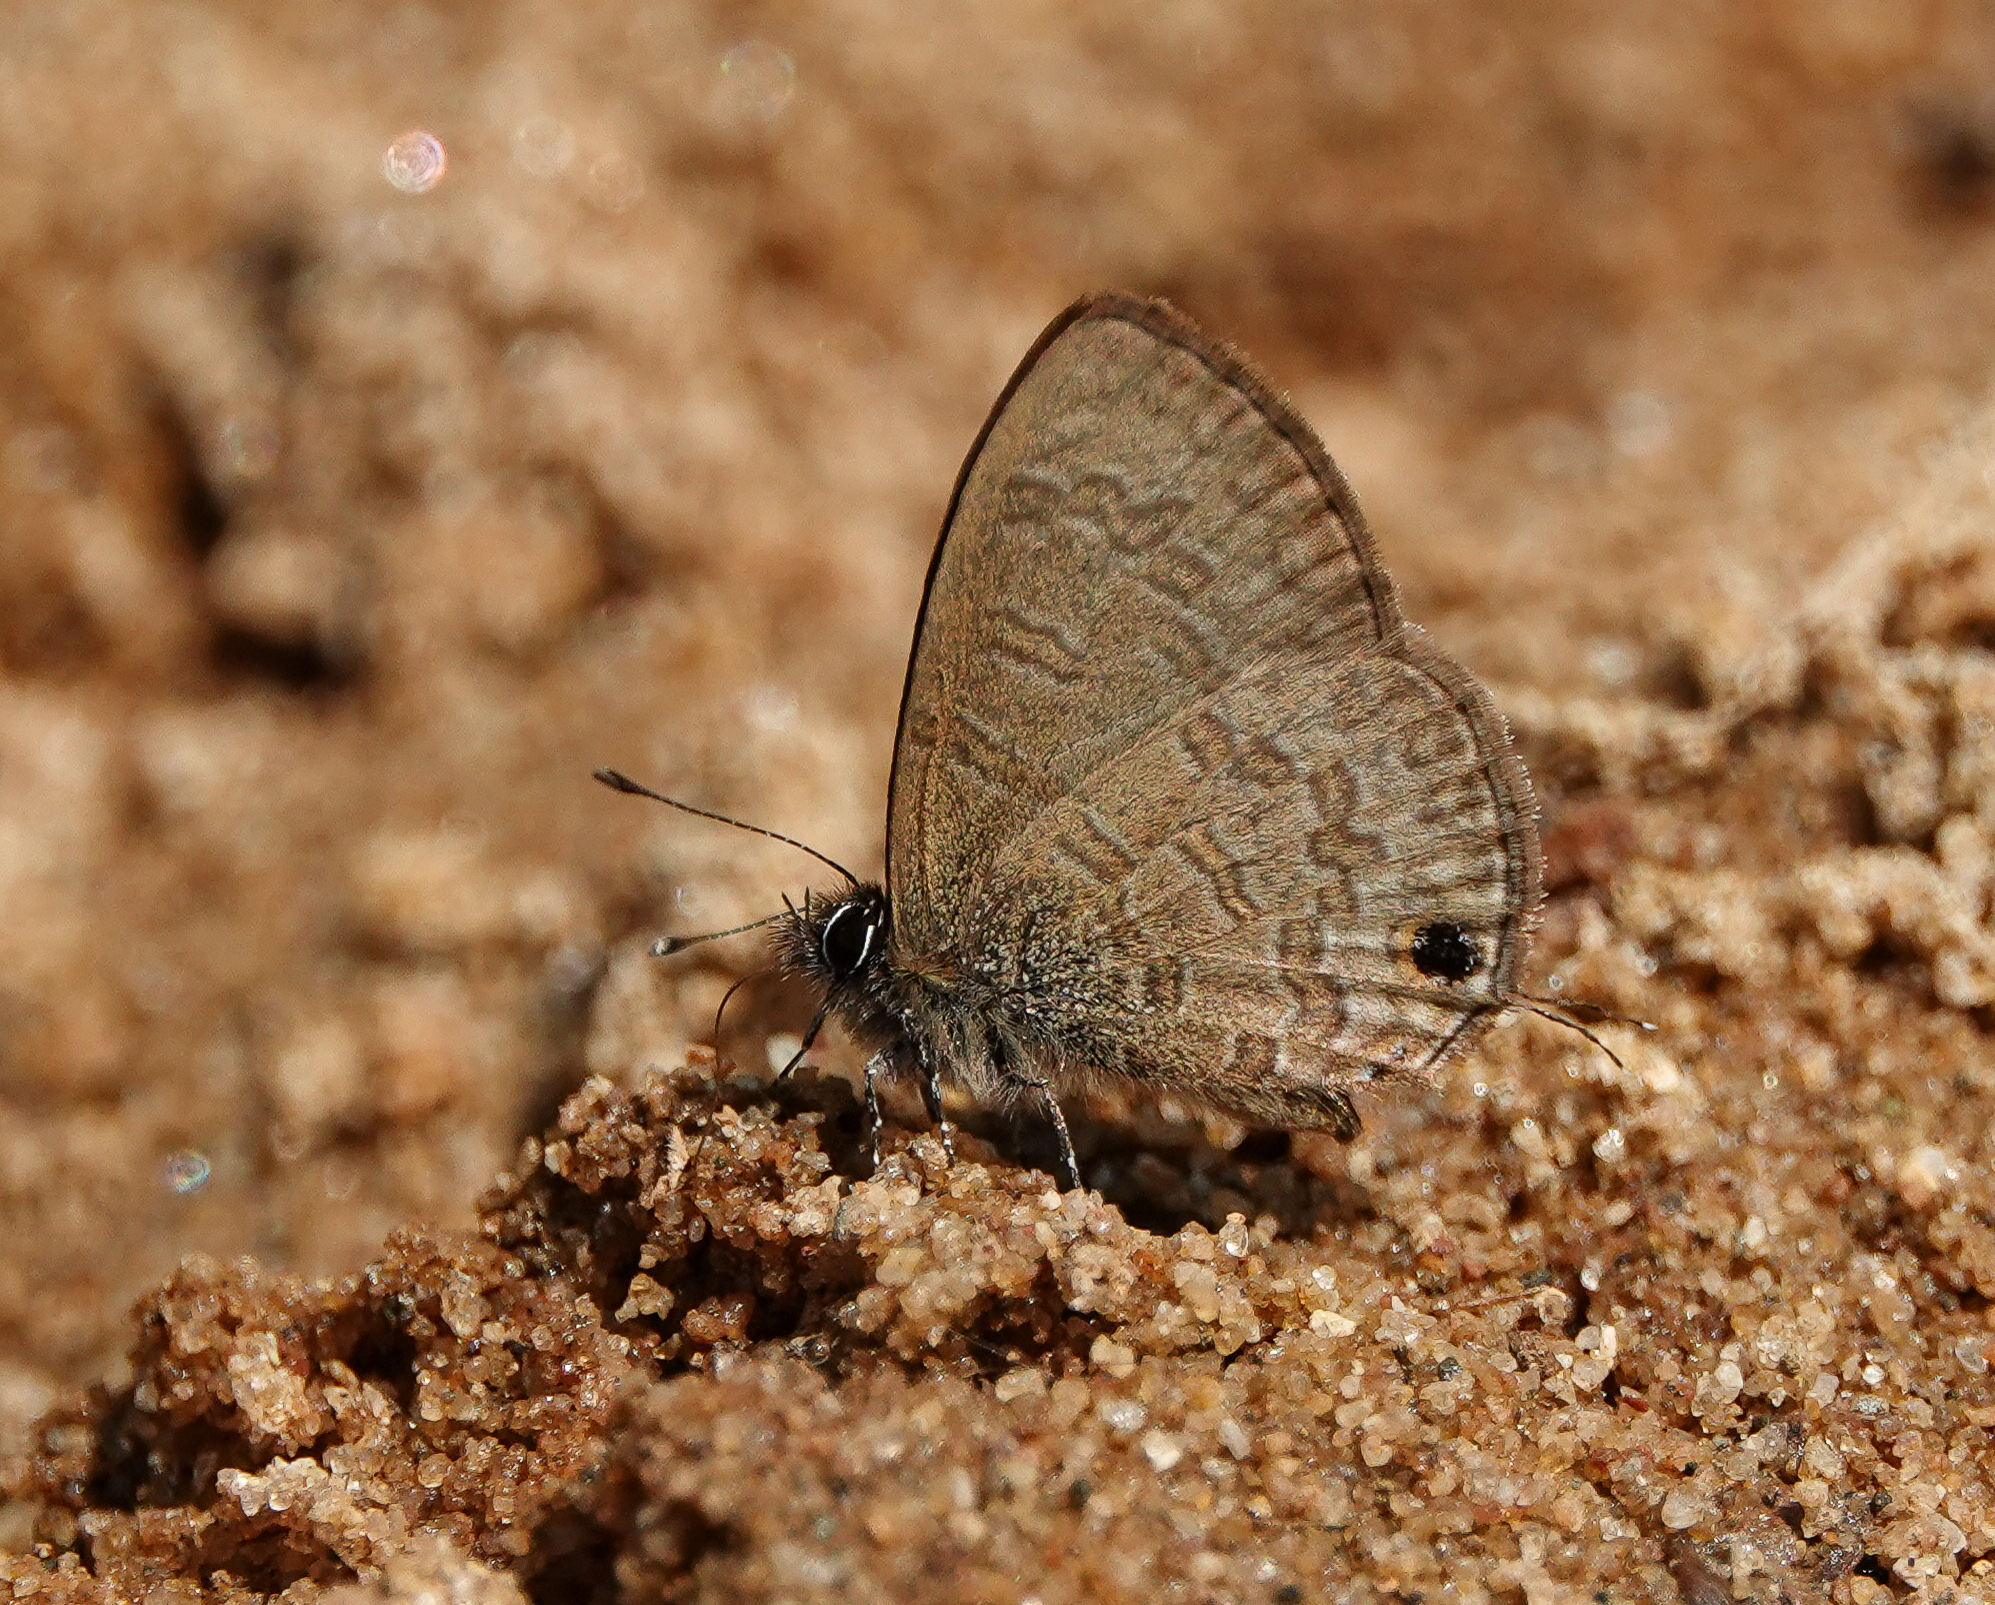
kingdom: Animalia
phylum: Arthropoda
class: Insecta
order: Lepidoptera
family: Lycaenidae
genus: Prosotas
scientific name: Prosotas nora
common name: Common line blue
